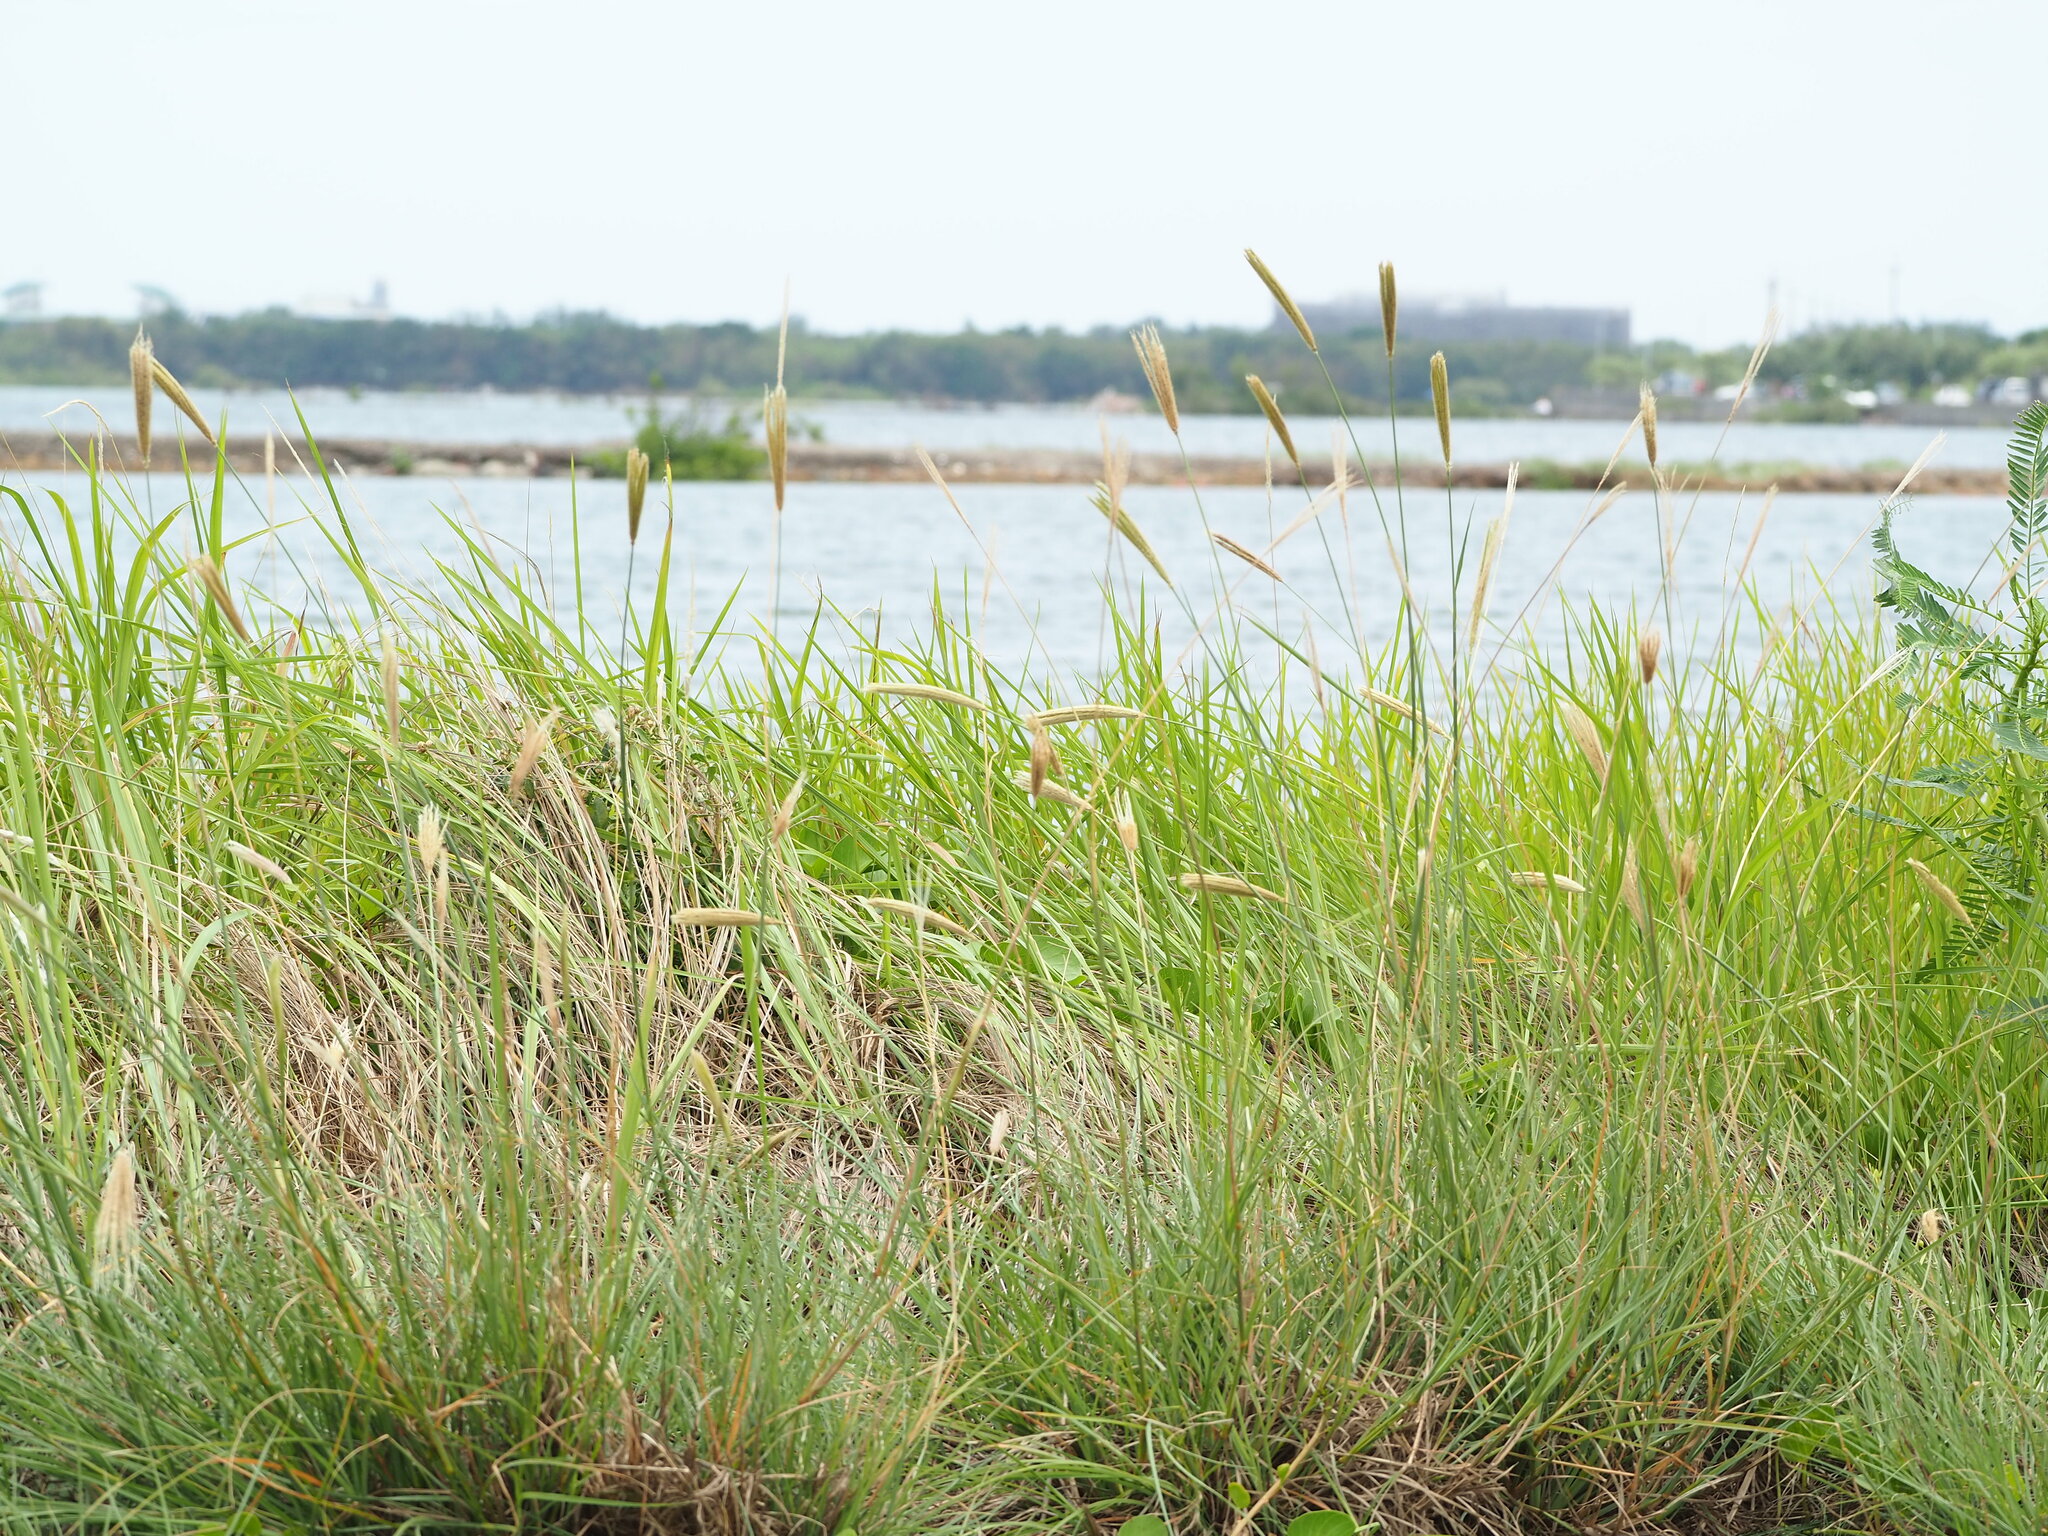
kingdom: Plantae
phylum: Tracheophyta
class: Liliopsida
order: Poales
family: Poaceae
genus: Chloris
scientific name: Chloris formosana
